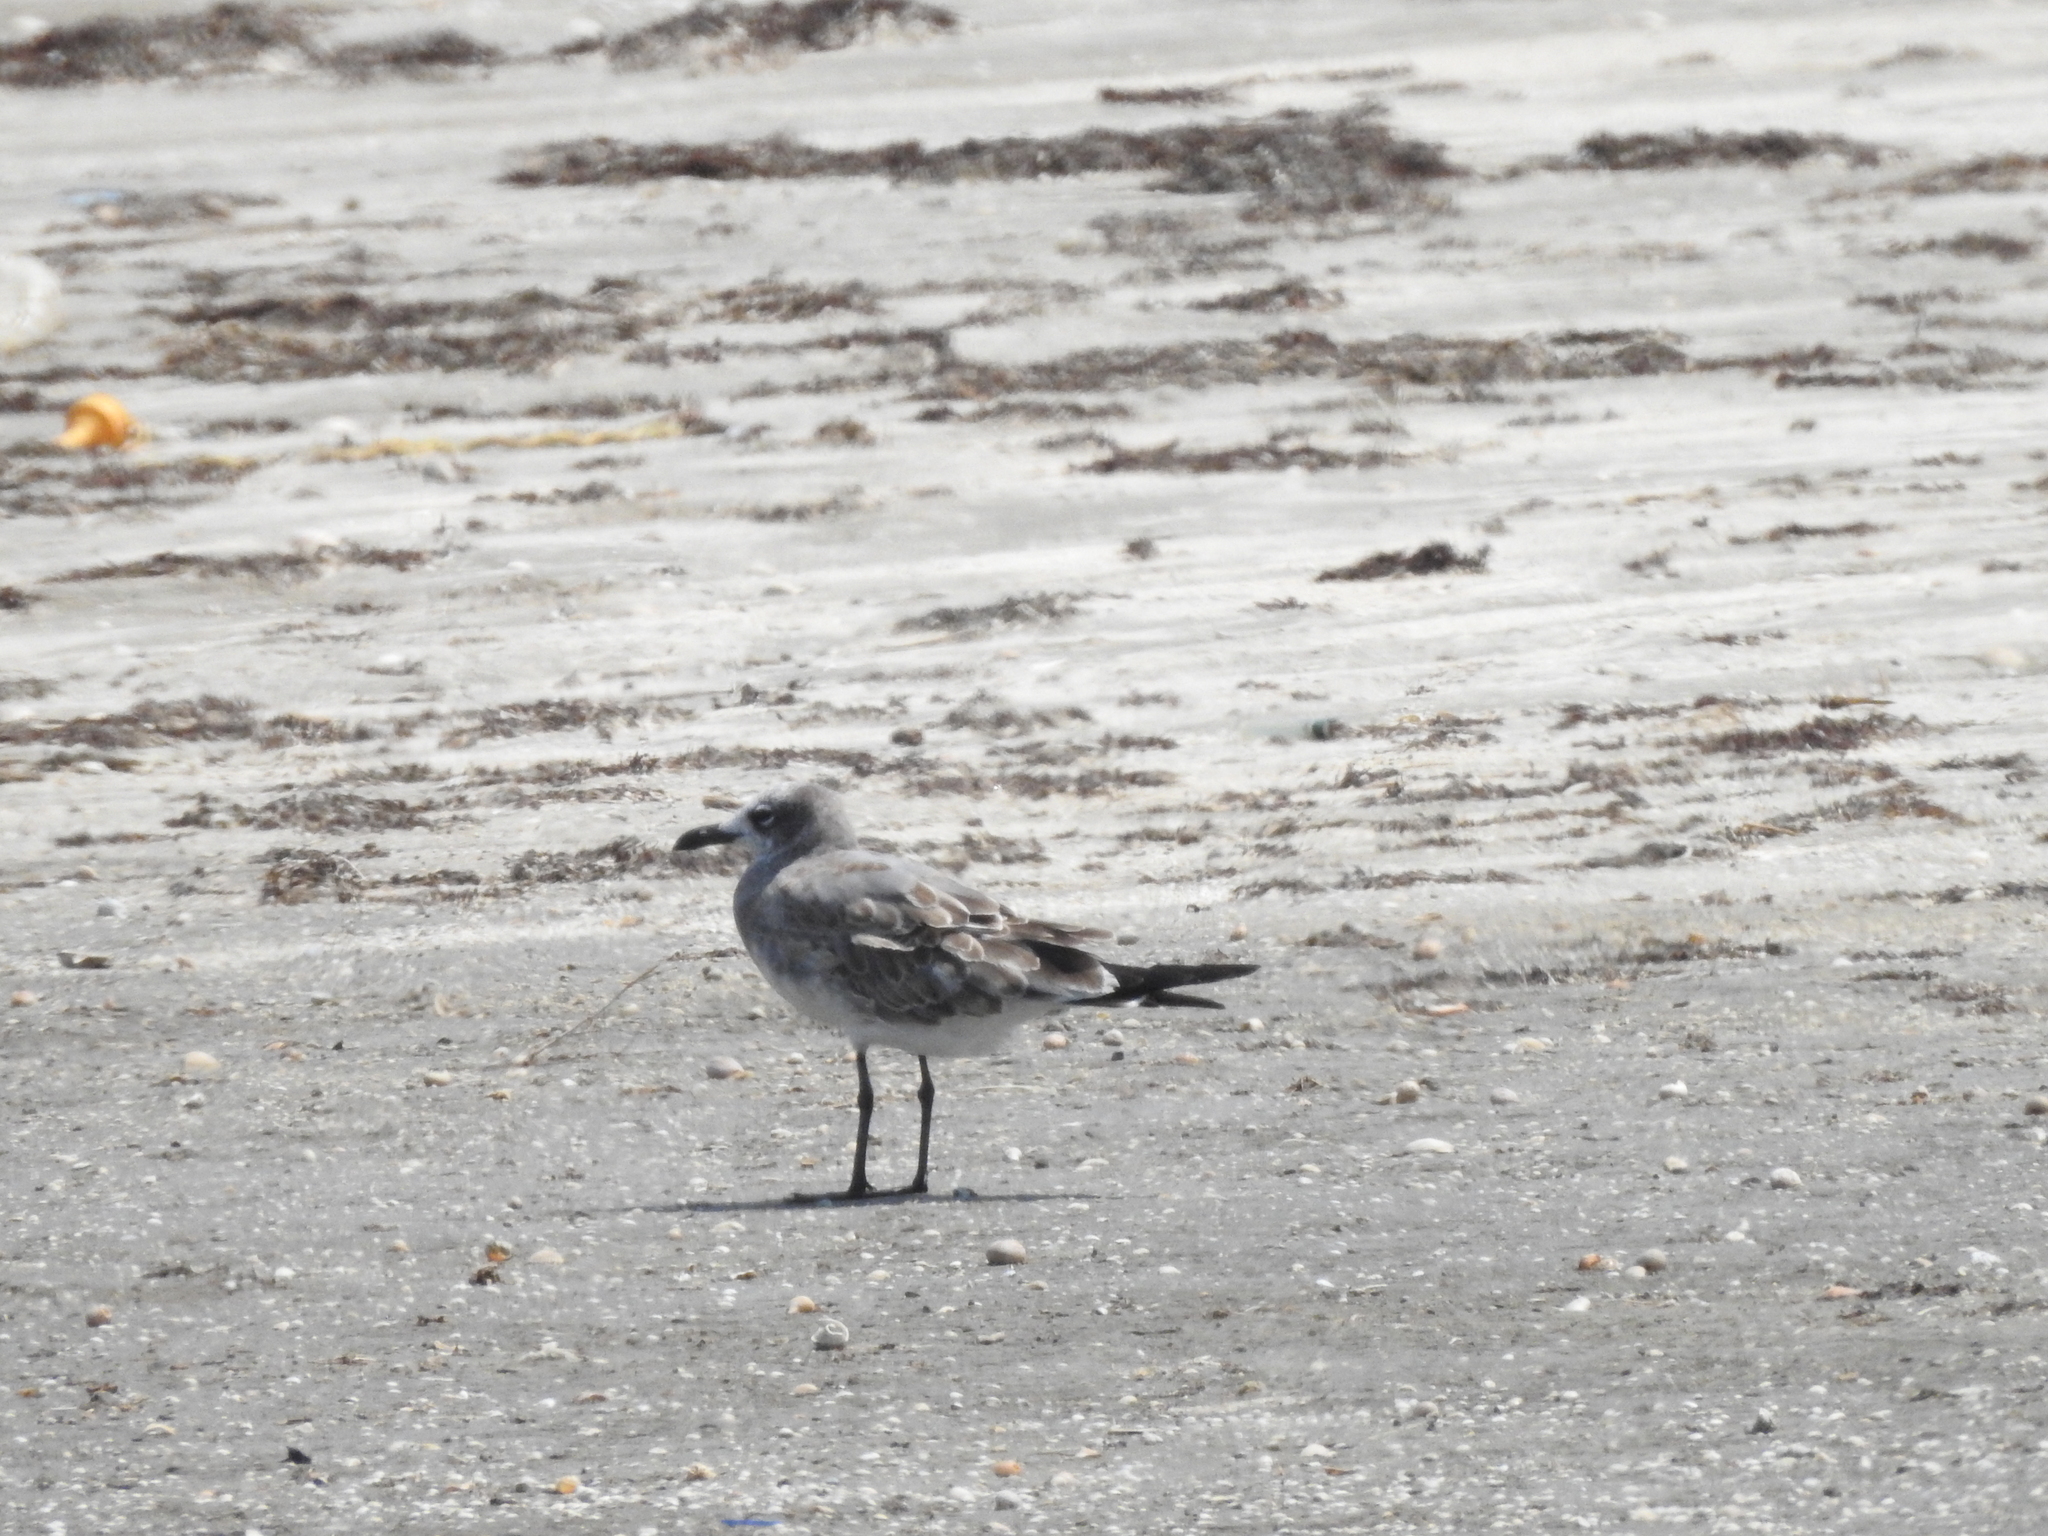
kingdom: Animalia
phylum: Chordata
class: Aves
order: Charadriiformes
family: Laridae
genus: Leucophaeus
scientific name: Leucophaeus atricilla
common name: Laughing gull
